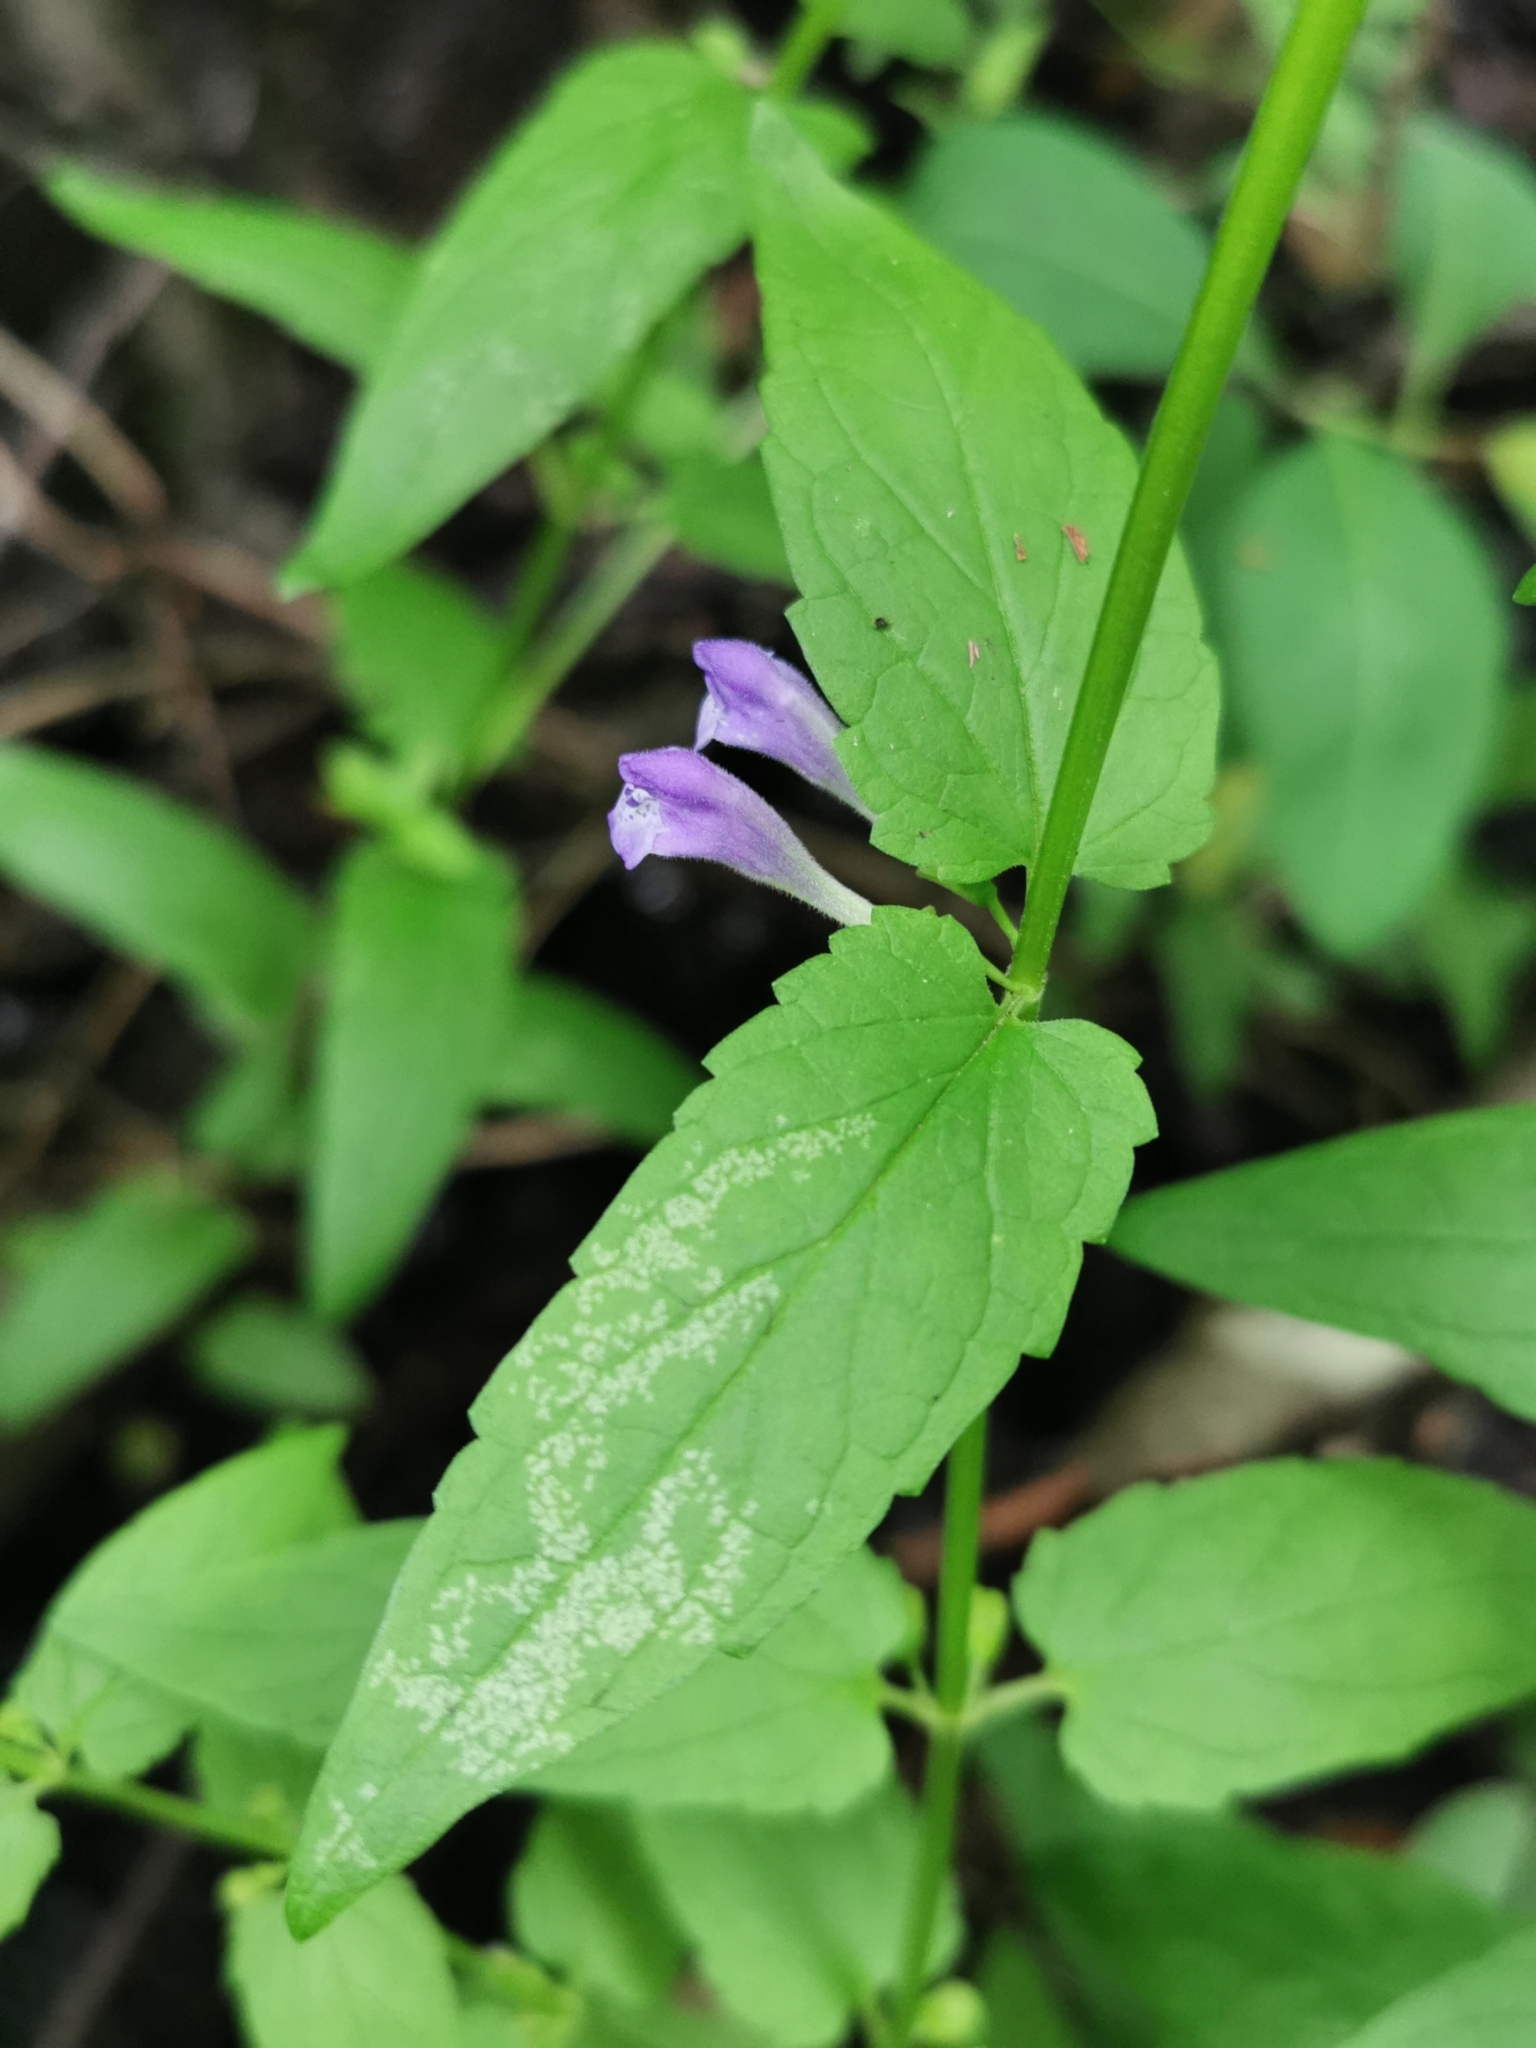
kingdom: Plantae
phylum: Tracheophyta
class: Magnoliopsida
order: Lamiales
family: Lamiaceae
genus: Scutellaria
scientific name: Scutellaria galericulata
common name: Skullcap
